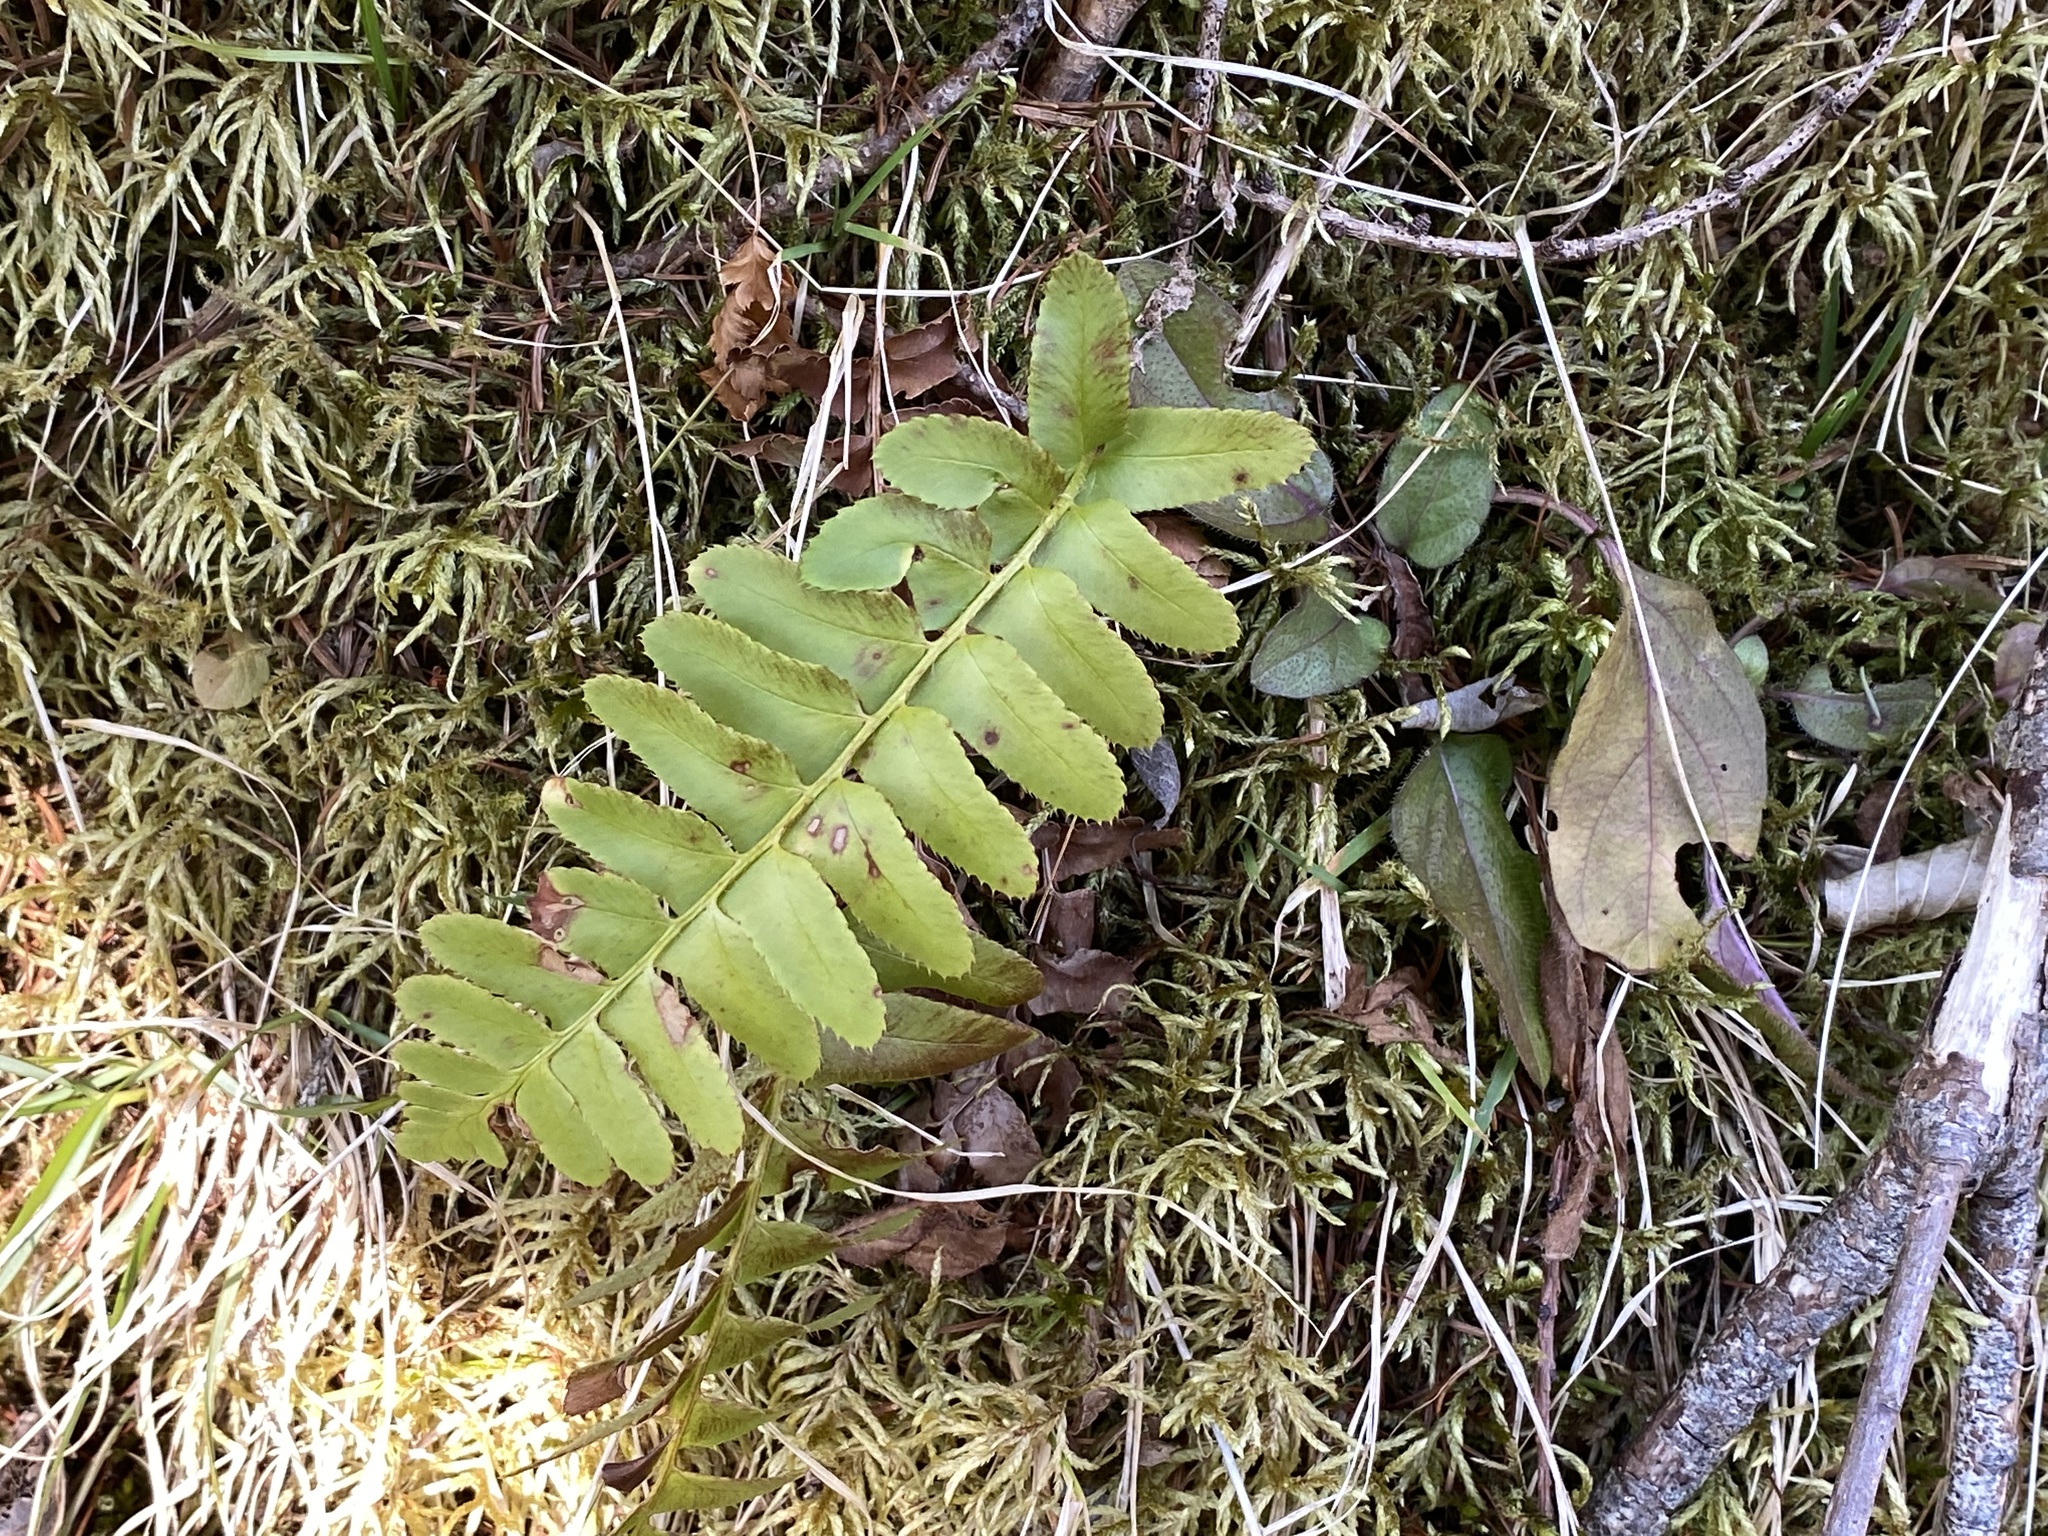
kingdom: Plantae
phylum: Tracheophyta
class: Polypodiopsida
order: Polypodiales
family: Dryopteridaceae
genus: Polystichum
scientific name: Polystichum acrostichoides
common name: Christmas fern
